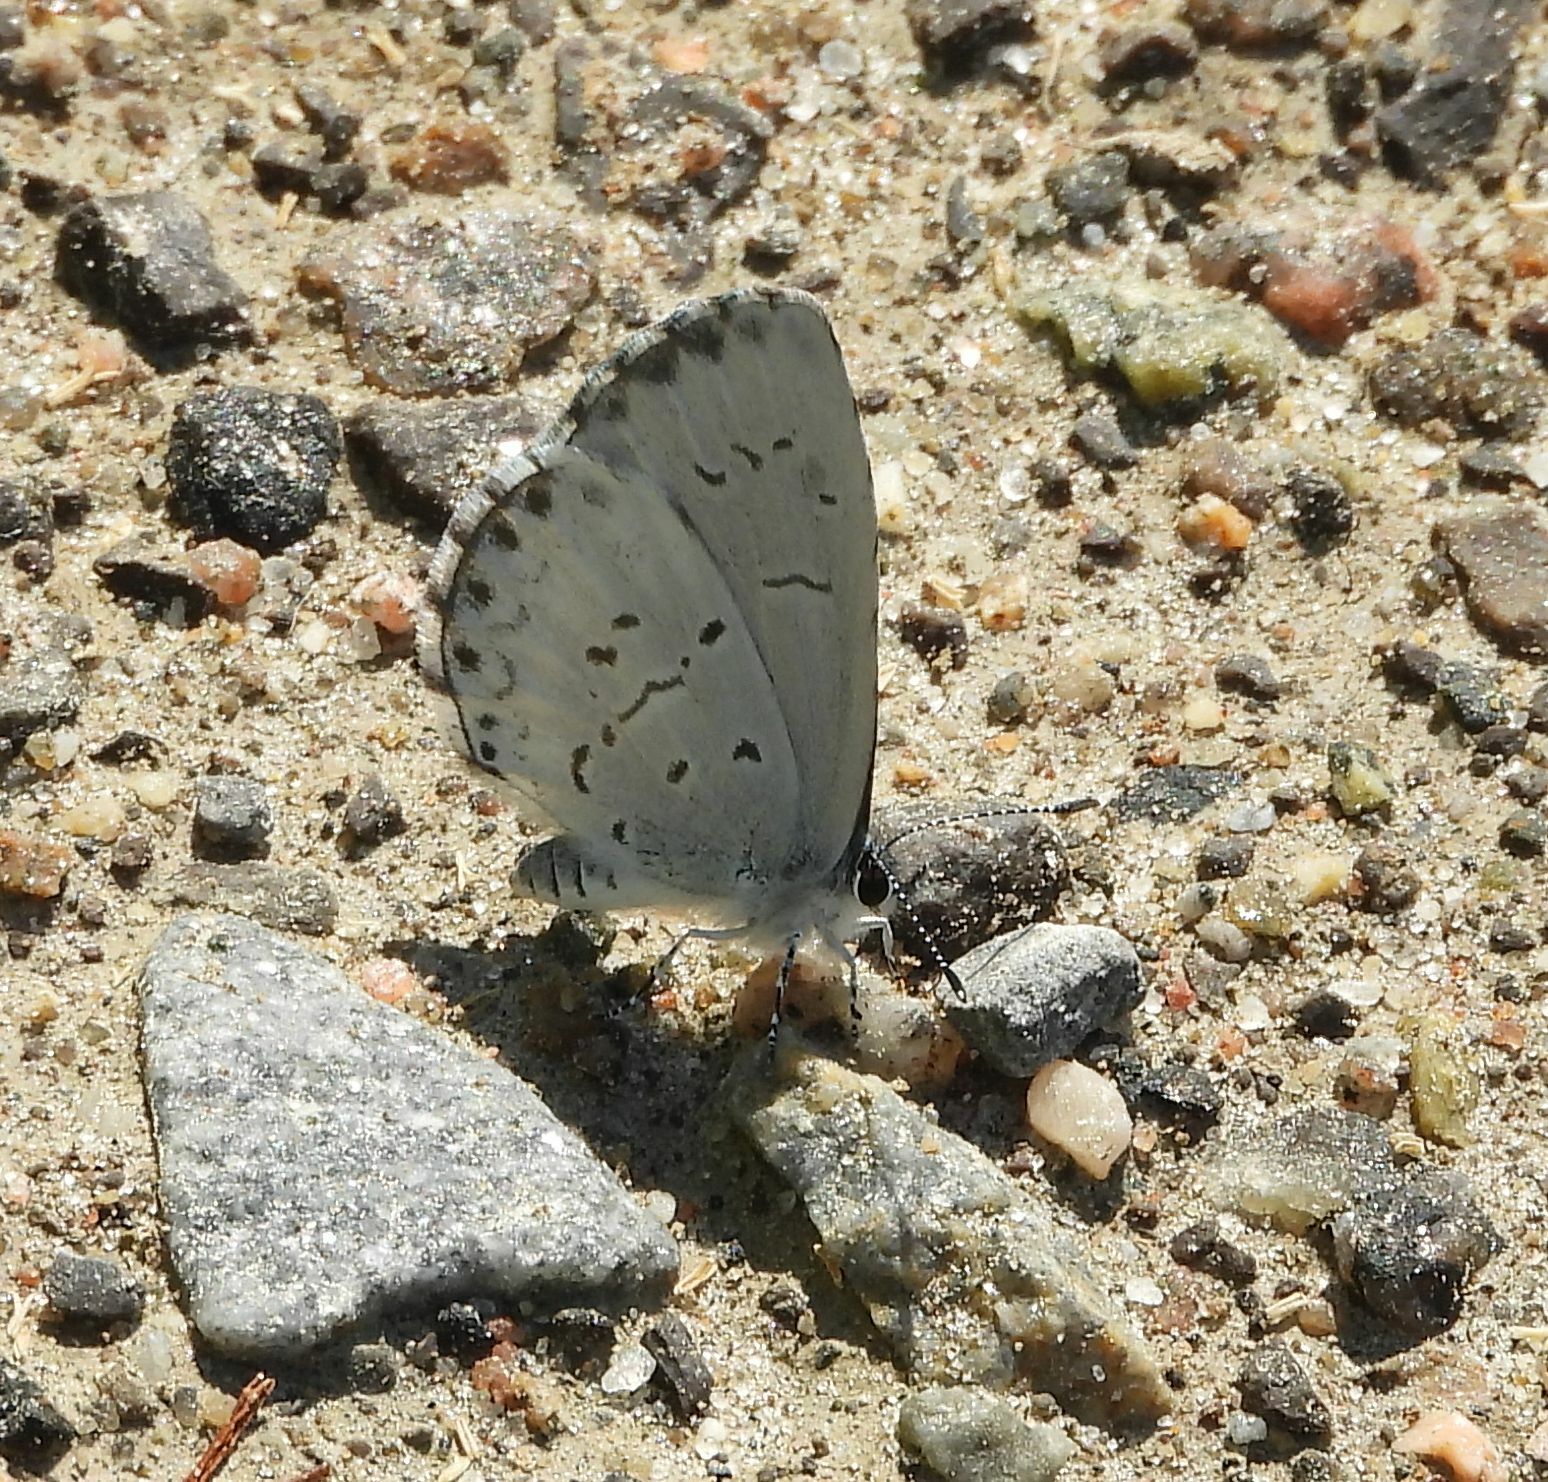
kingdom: Animalia
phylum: Arthropoda
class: Insecta
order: Lepidoptera
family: Lycaenidae
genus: Celastrina
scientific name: Celastrina lucia
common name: Lucia azure
